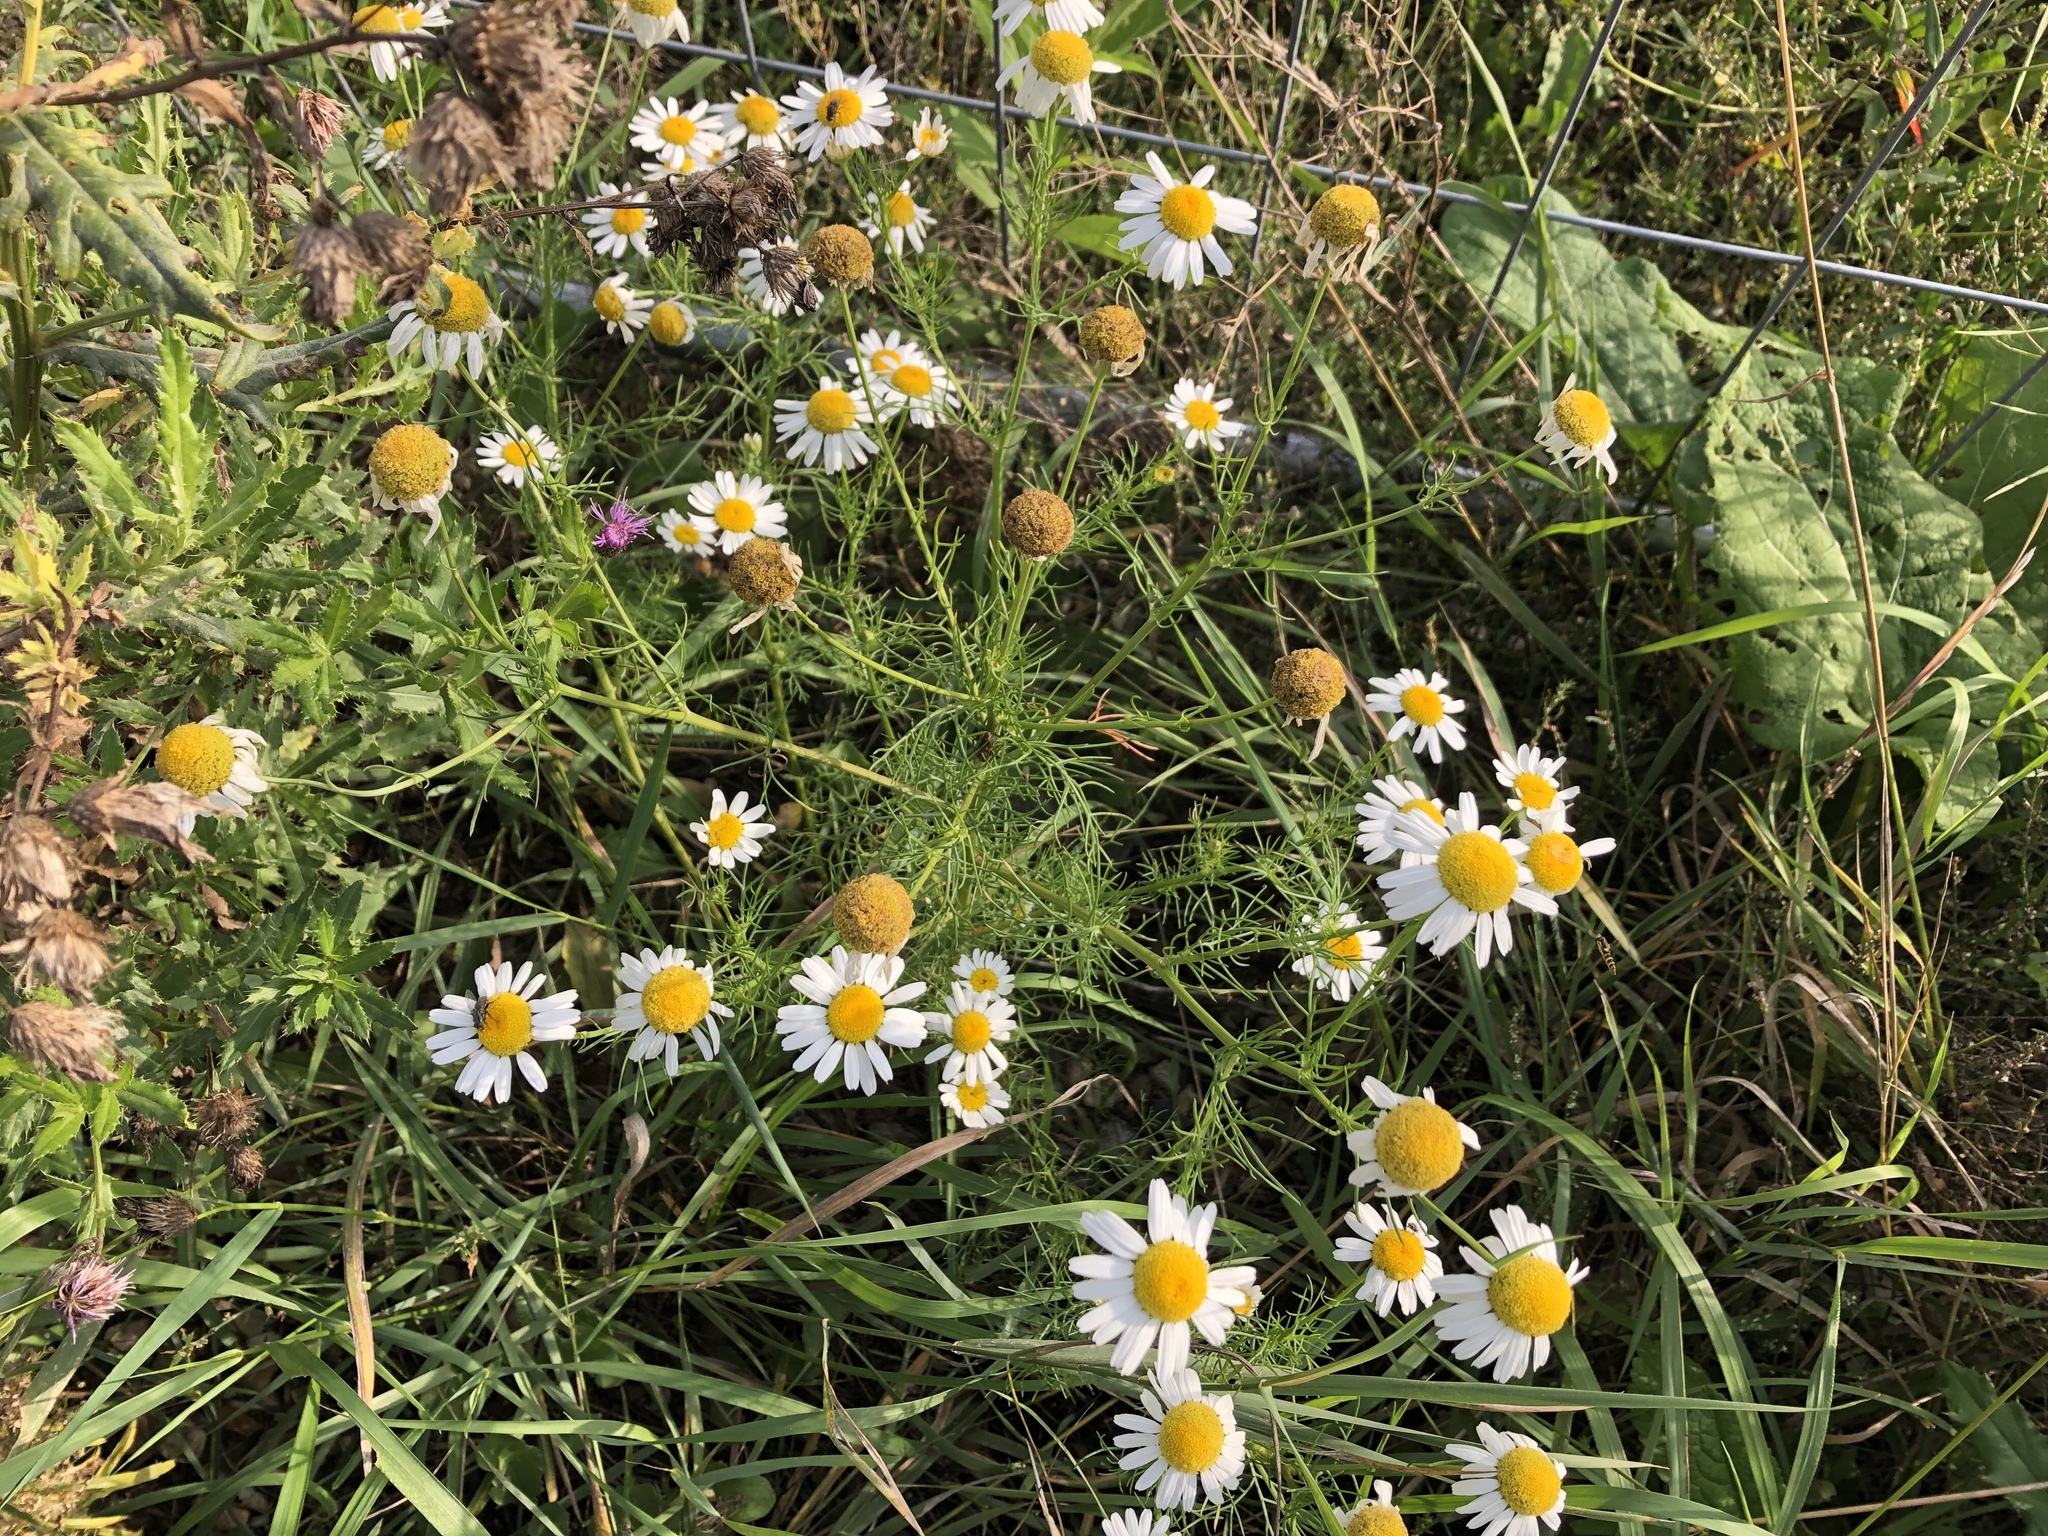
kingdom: Plantae
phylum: Tracheophyta
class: Magnoliopsida
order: Asterales
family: Asteraceae
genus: Tripleurospermum
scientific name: Tripleurospermum inodorum
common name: Scentless mayweed
